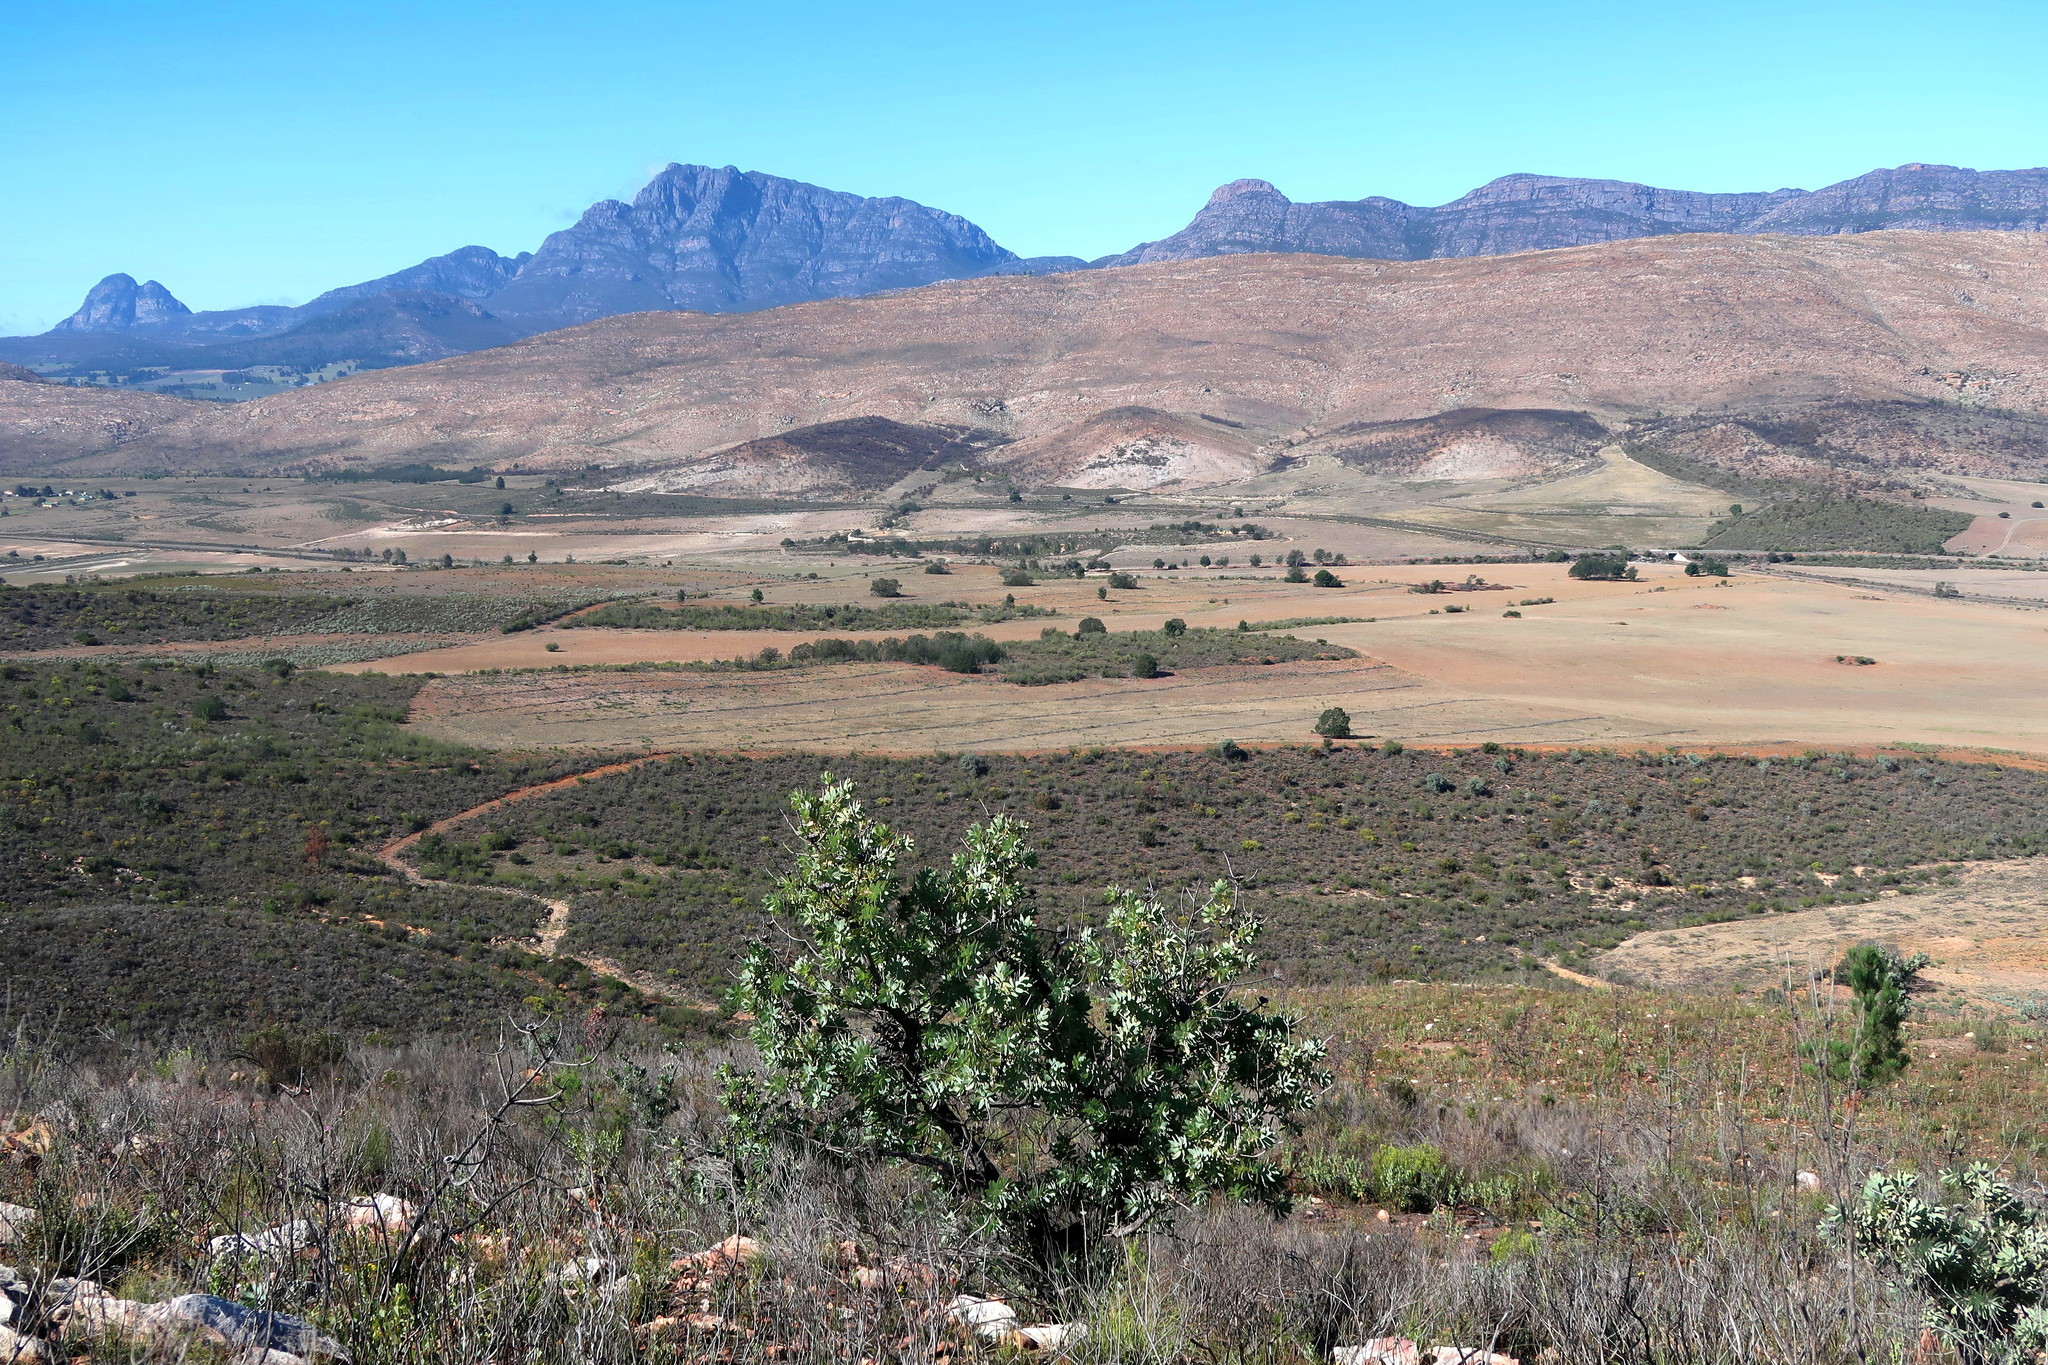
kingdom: Plantae
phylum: Tracheophyta
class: Magnoliopsida
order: Proteales
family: Proteaceae
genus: Protea
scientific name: Protea nitida
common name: Tree protea
